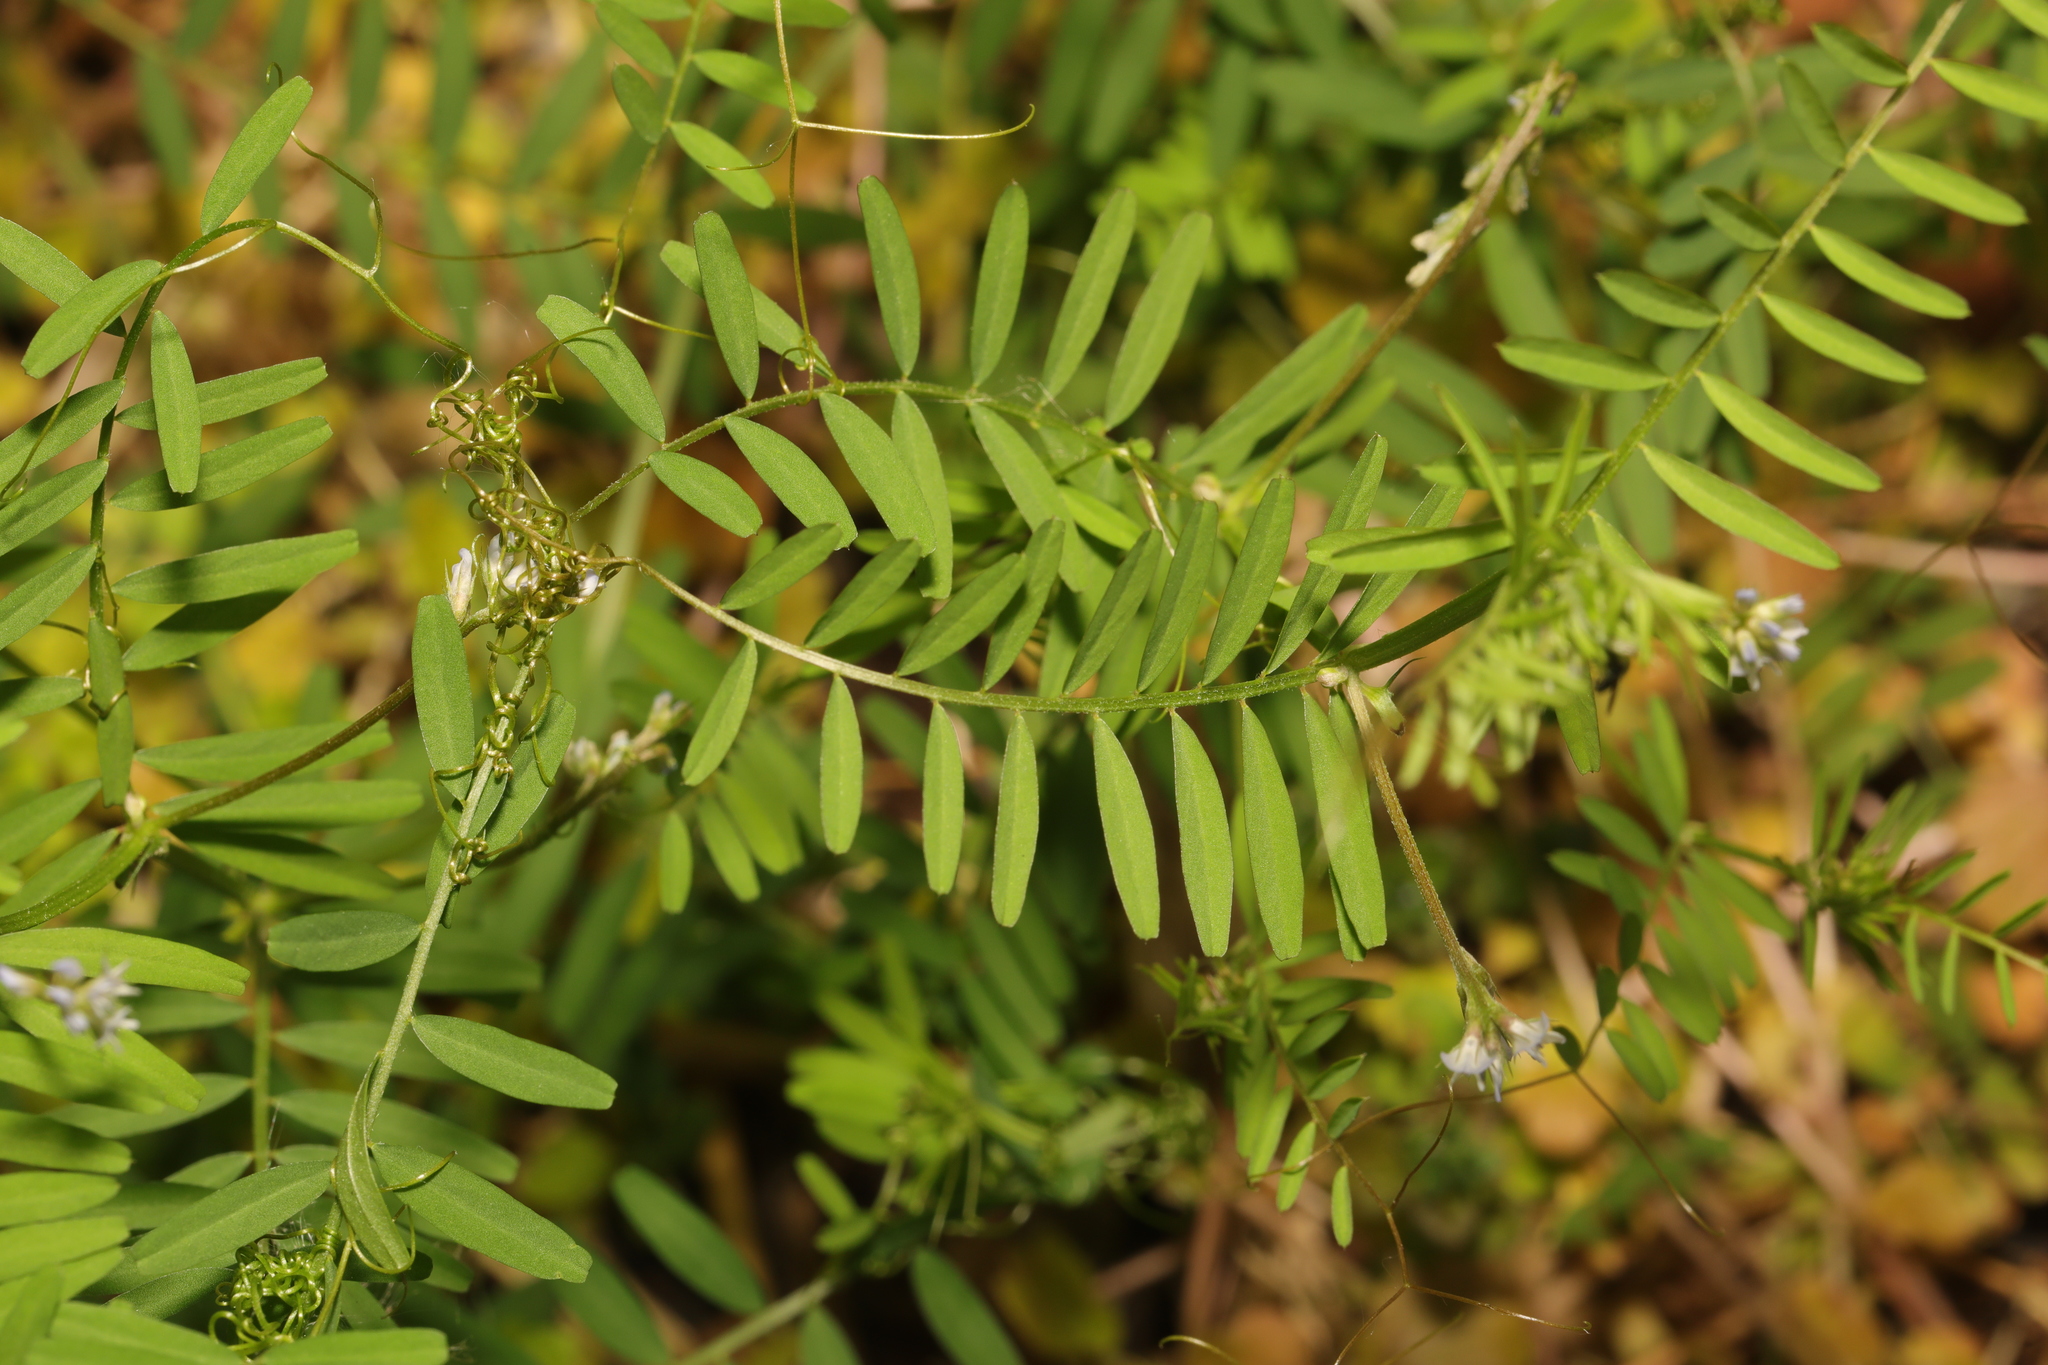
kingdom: Plantae
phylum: Tracheophyta
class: Magnoliopsida
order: Fabales
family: Fabaceae
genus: Vicia
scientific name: Vicia hirsuta
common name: Tiny vetch
